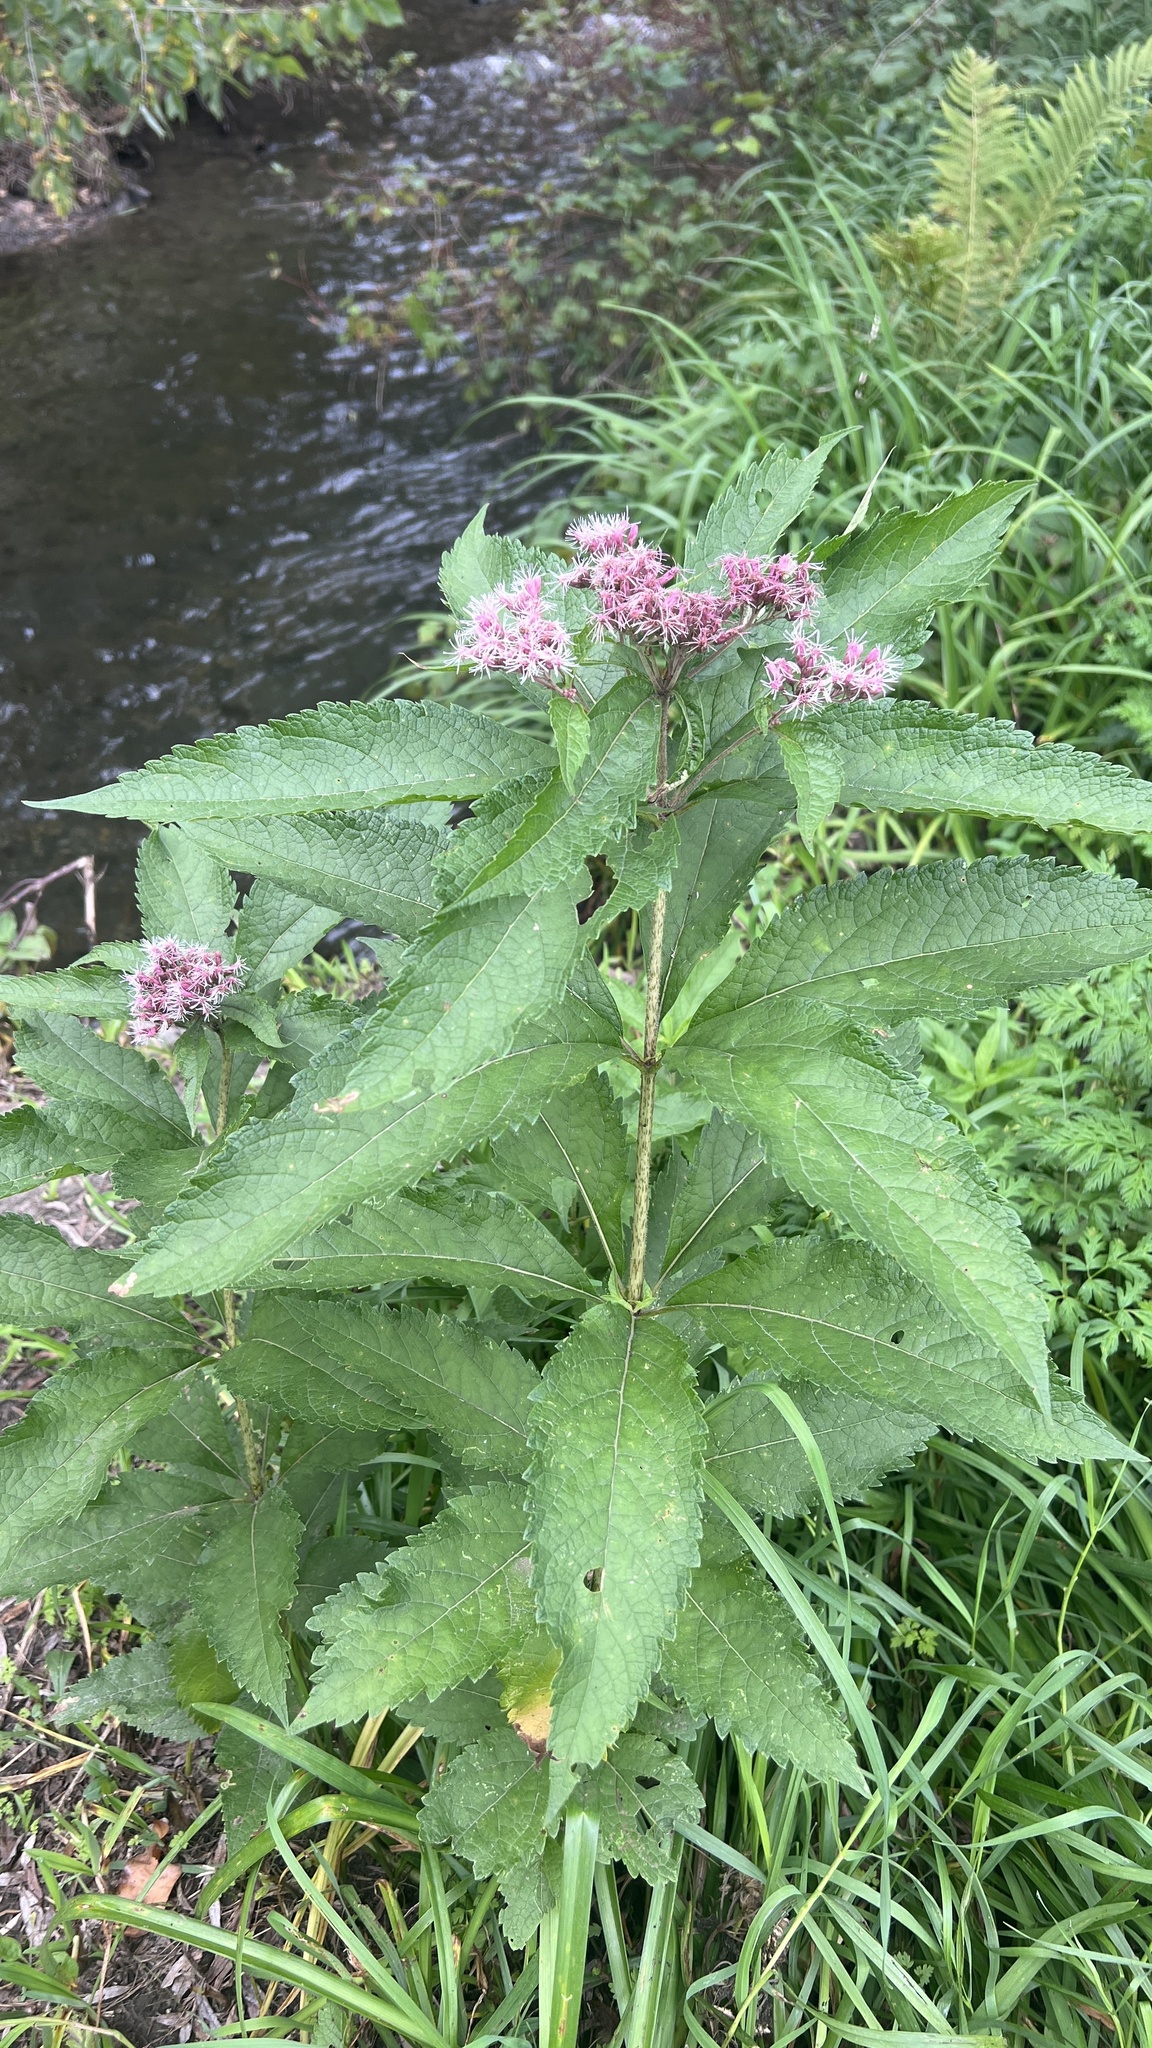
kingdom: Plantae
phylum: Tracheophyta
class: Magnoliopsida
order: Asterales
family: Asteraceae
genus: Eutrochium
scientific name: Eutrochium maculatum
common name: Spotted joe pye weed
